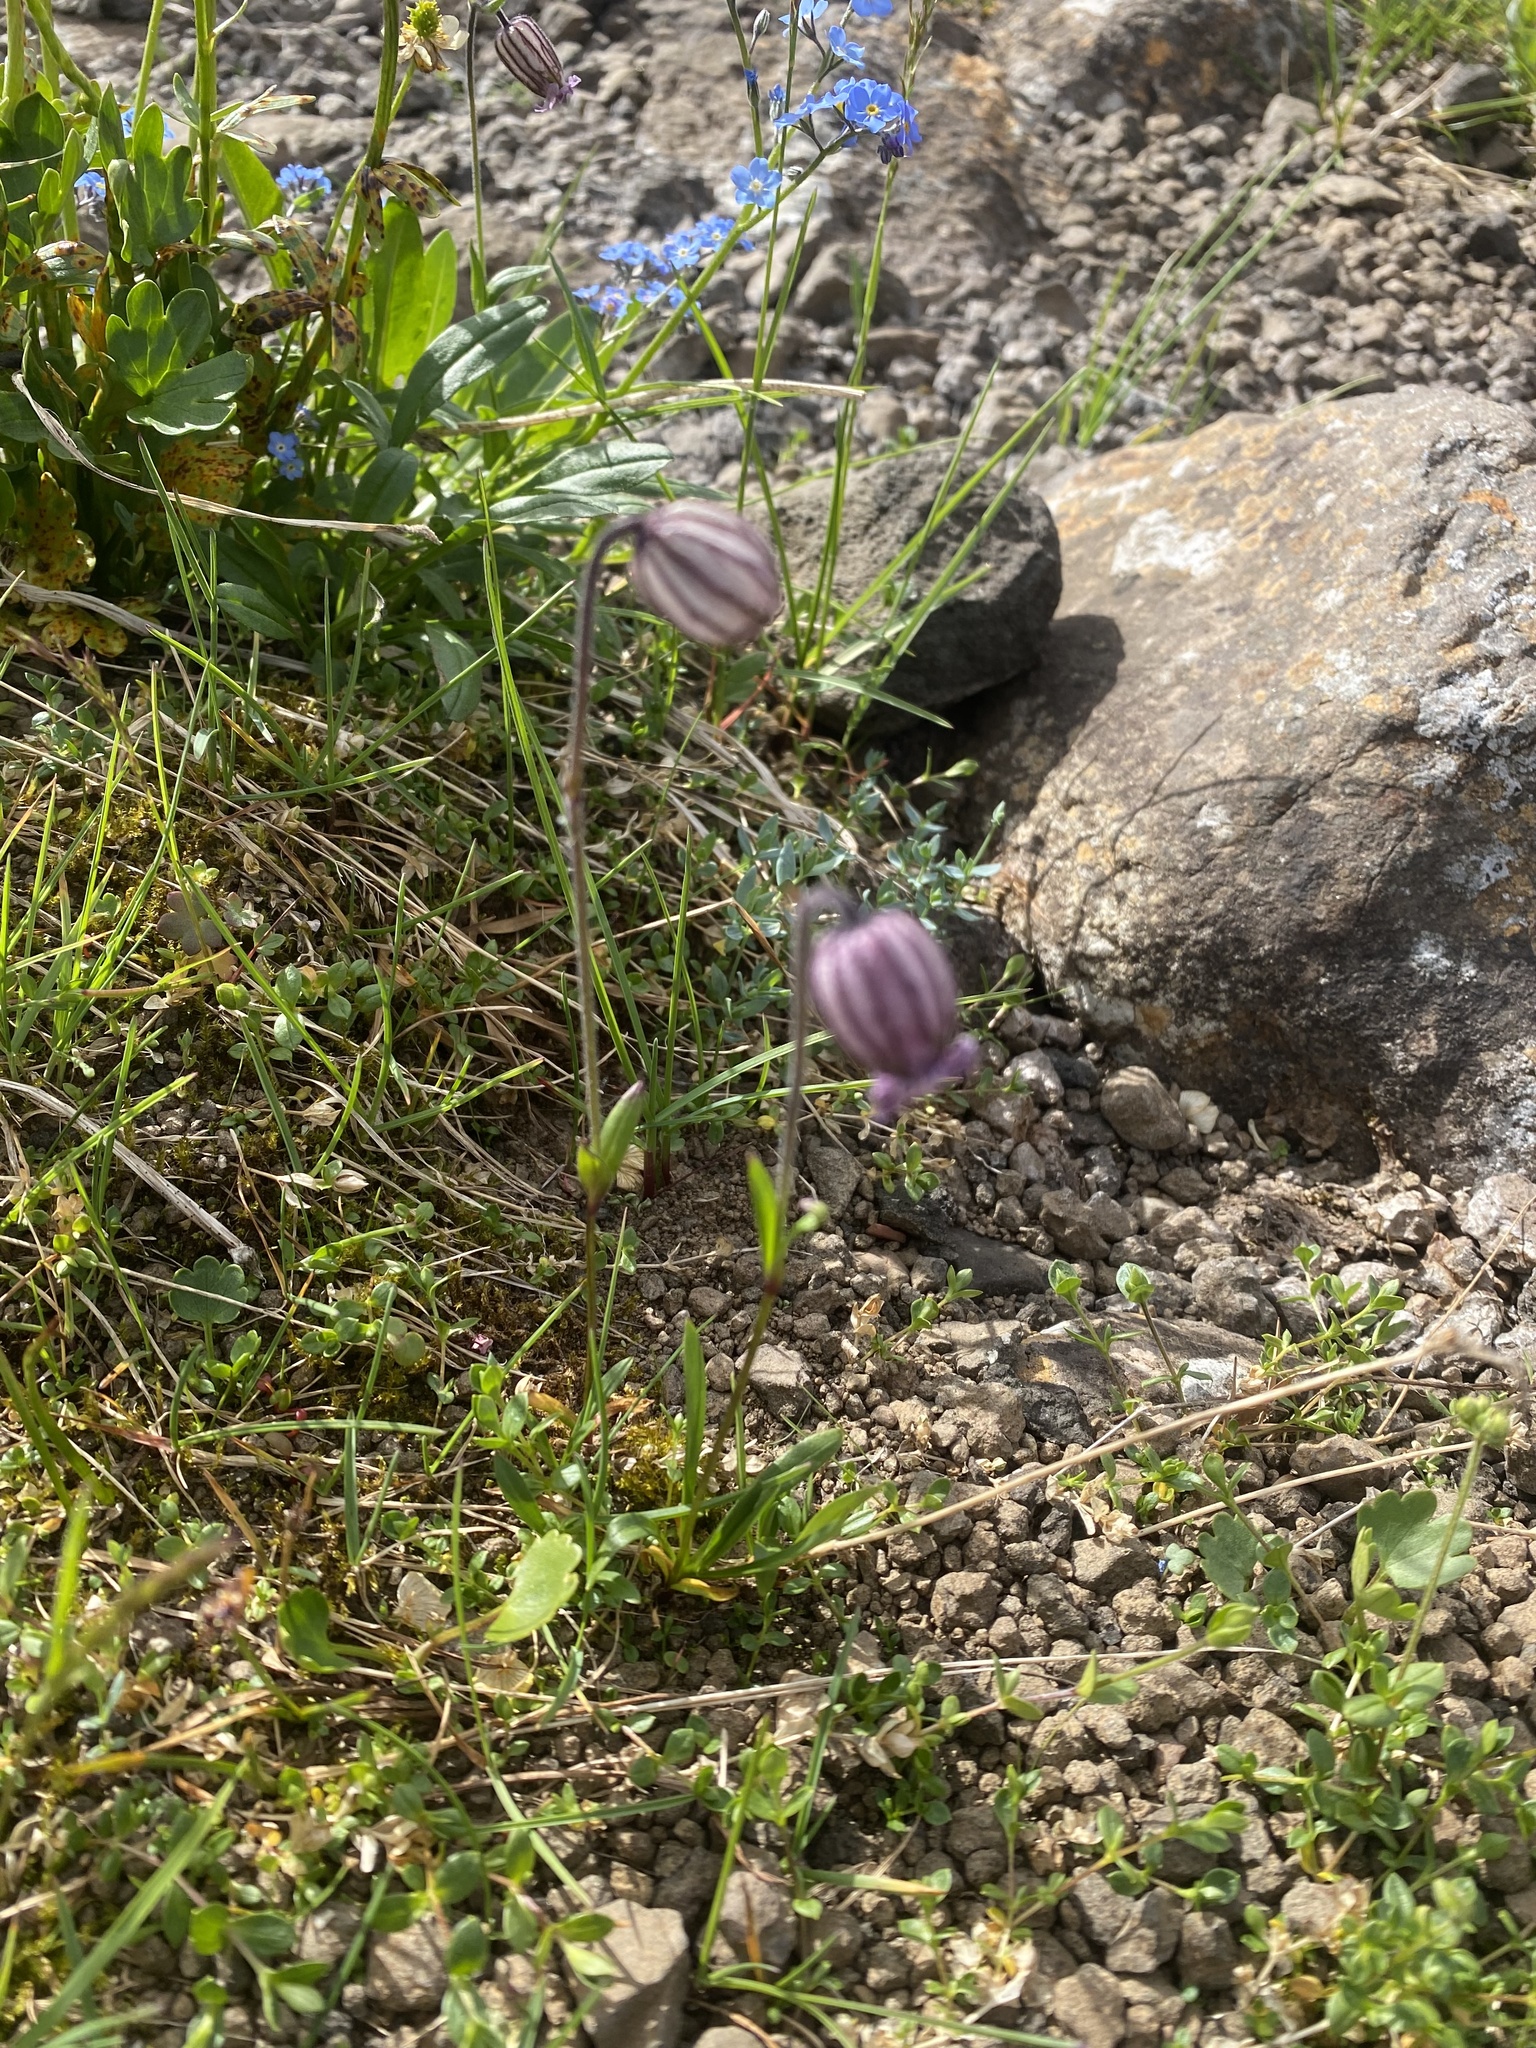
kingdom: Plantae
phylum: Tracheophyta
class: Magnoliopsida
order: Caryophyllales
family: Caryophyllaceae
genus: Silene
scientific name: Silene wahlbergella
